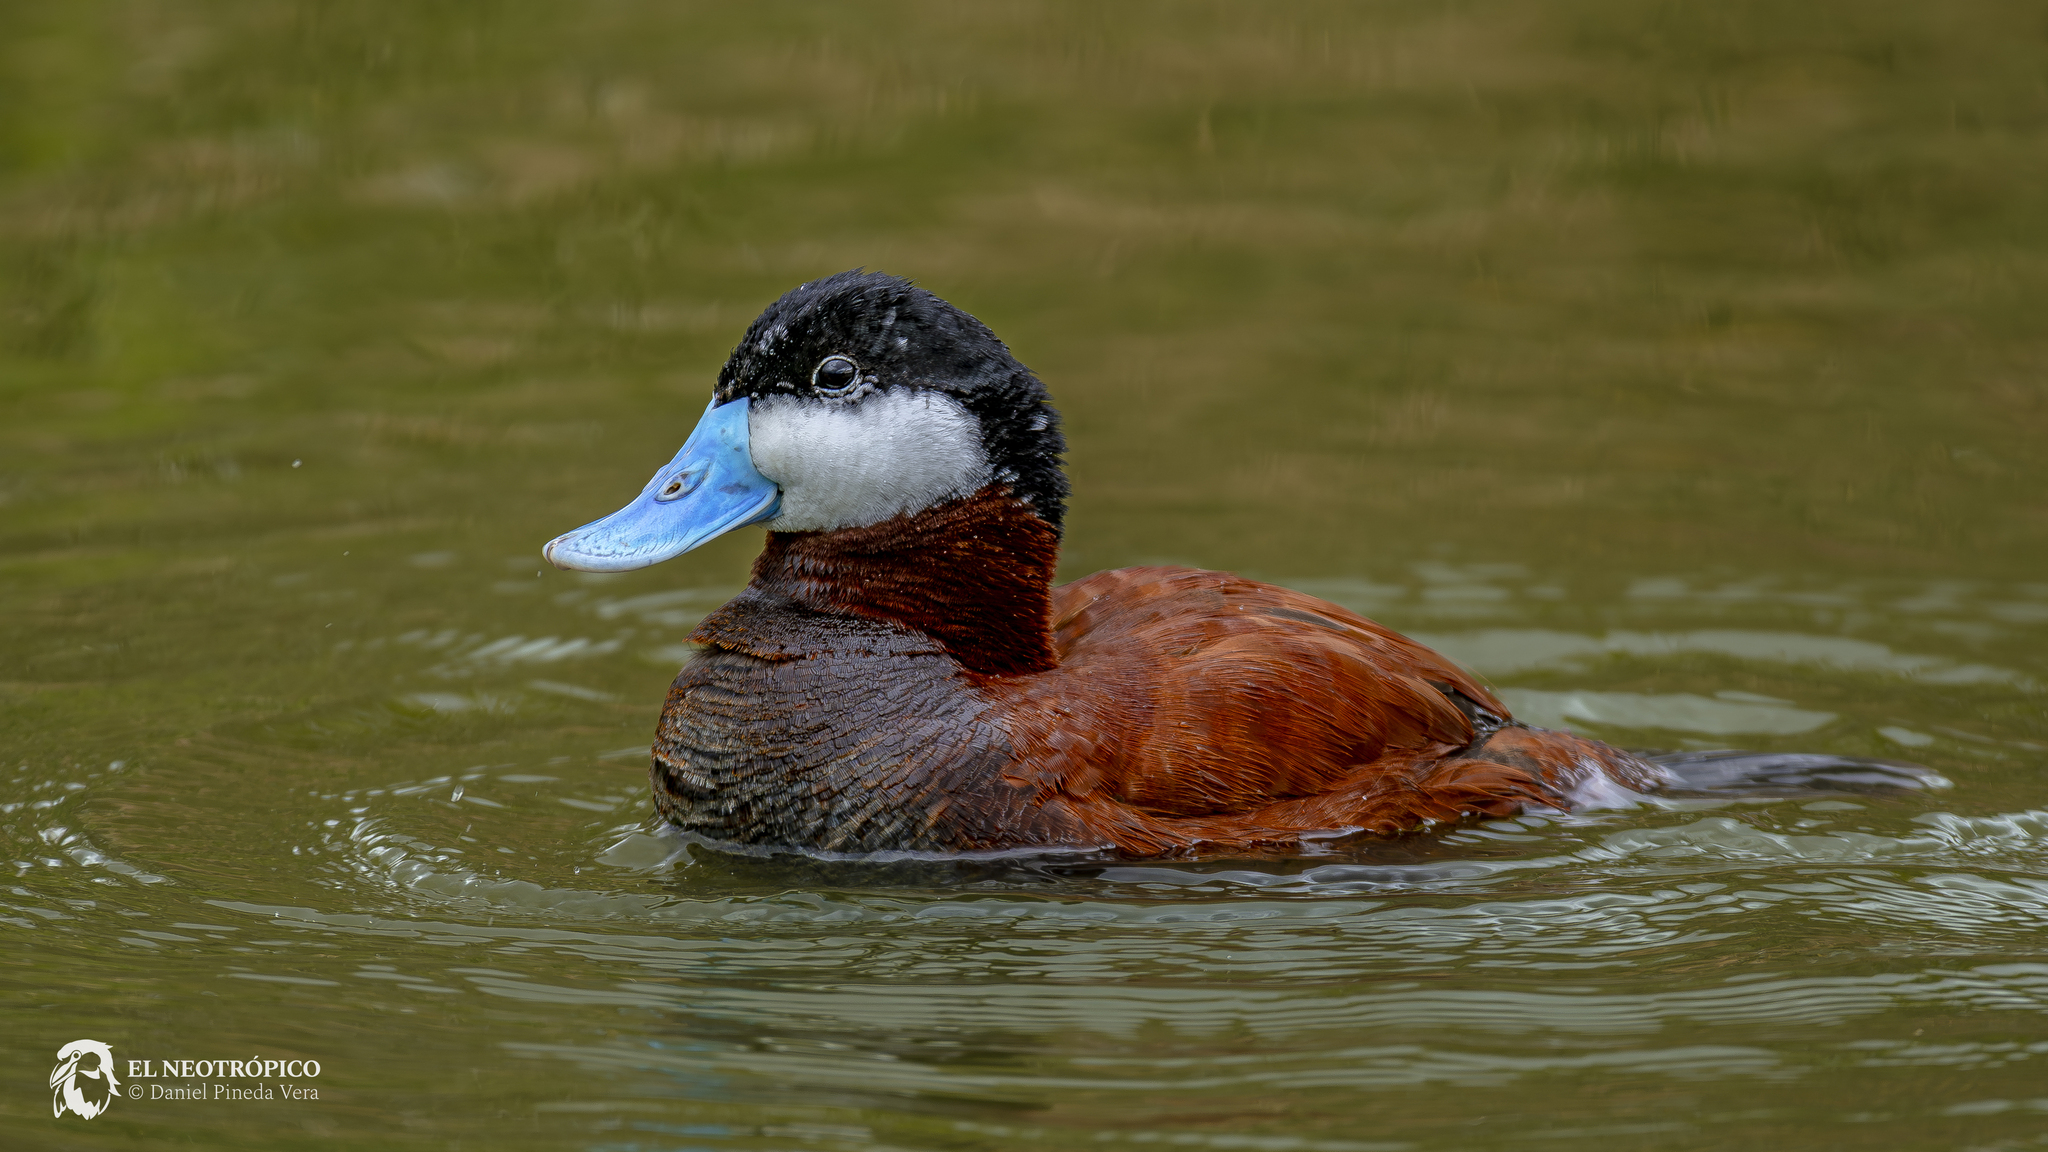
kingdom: Animalia
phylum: Chordata
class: Aves
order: Anseriformes
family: Anatidae
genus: Oxyura
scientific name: Oxyura jamaicensis
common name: Ruddy duck
